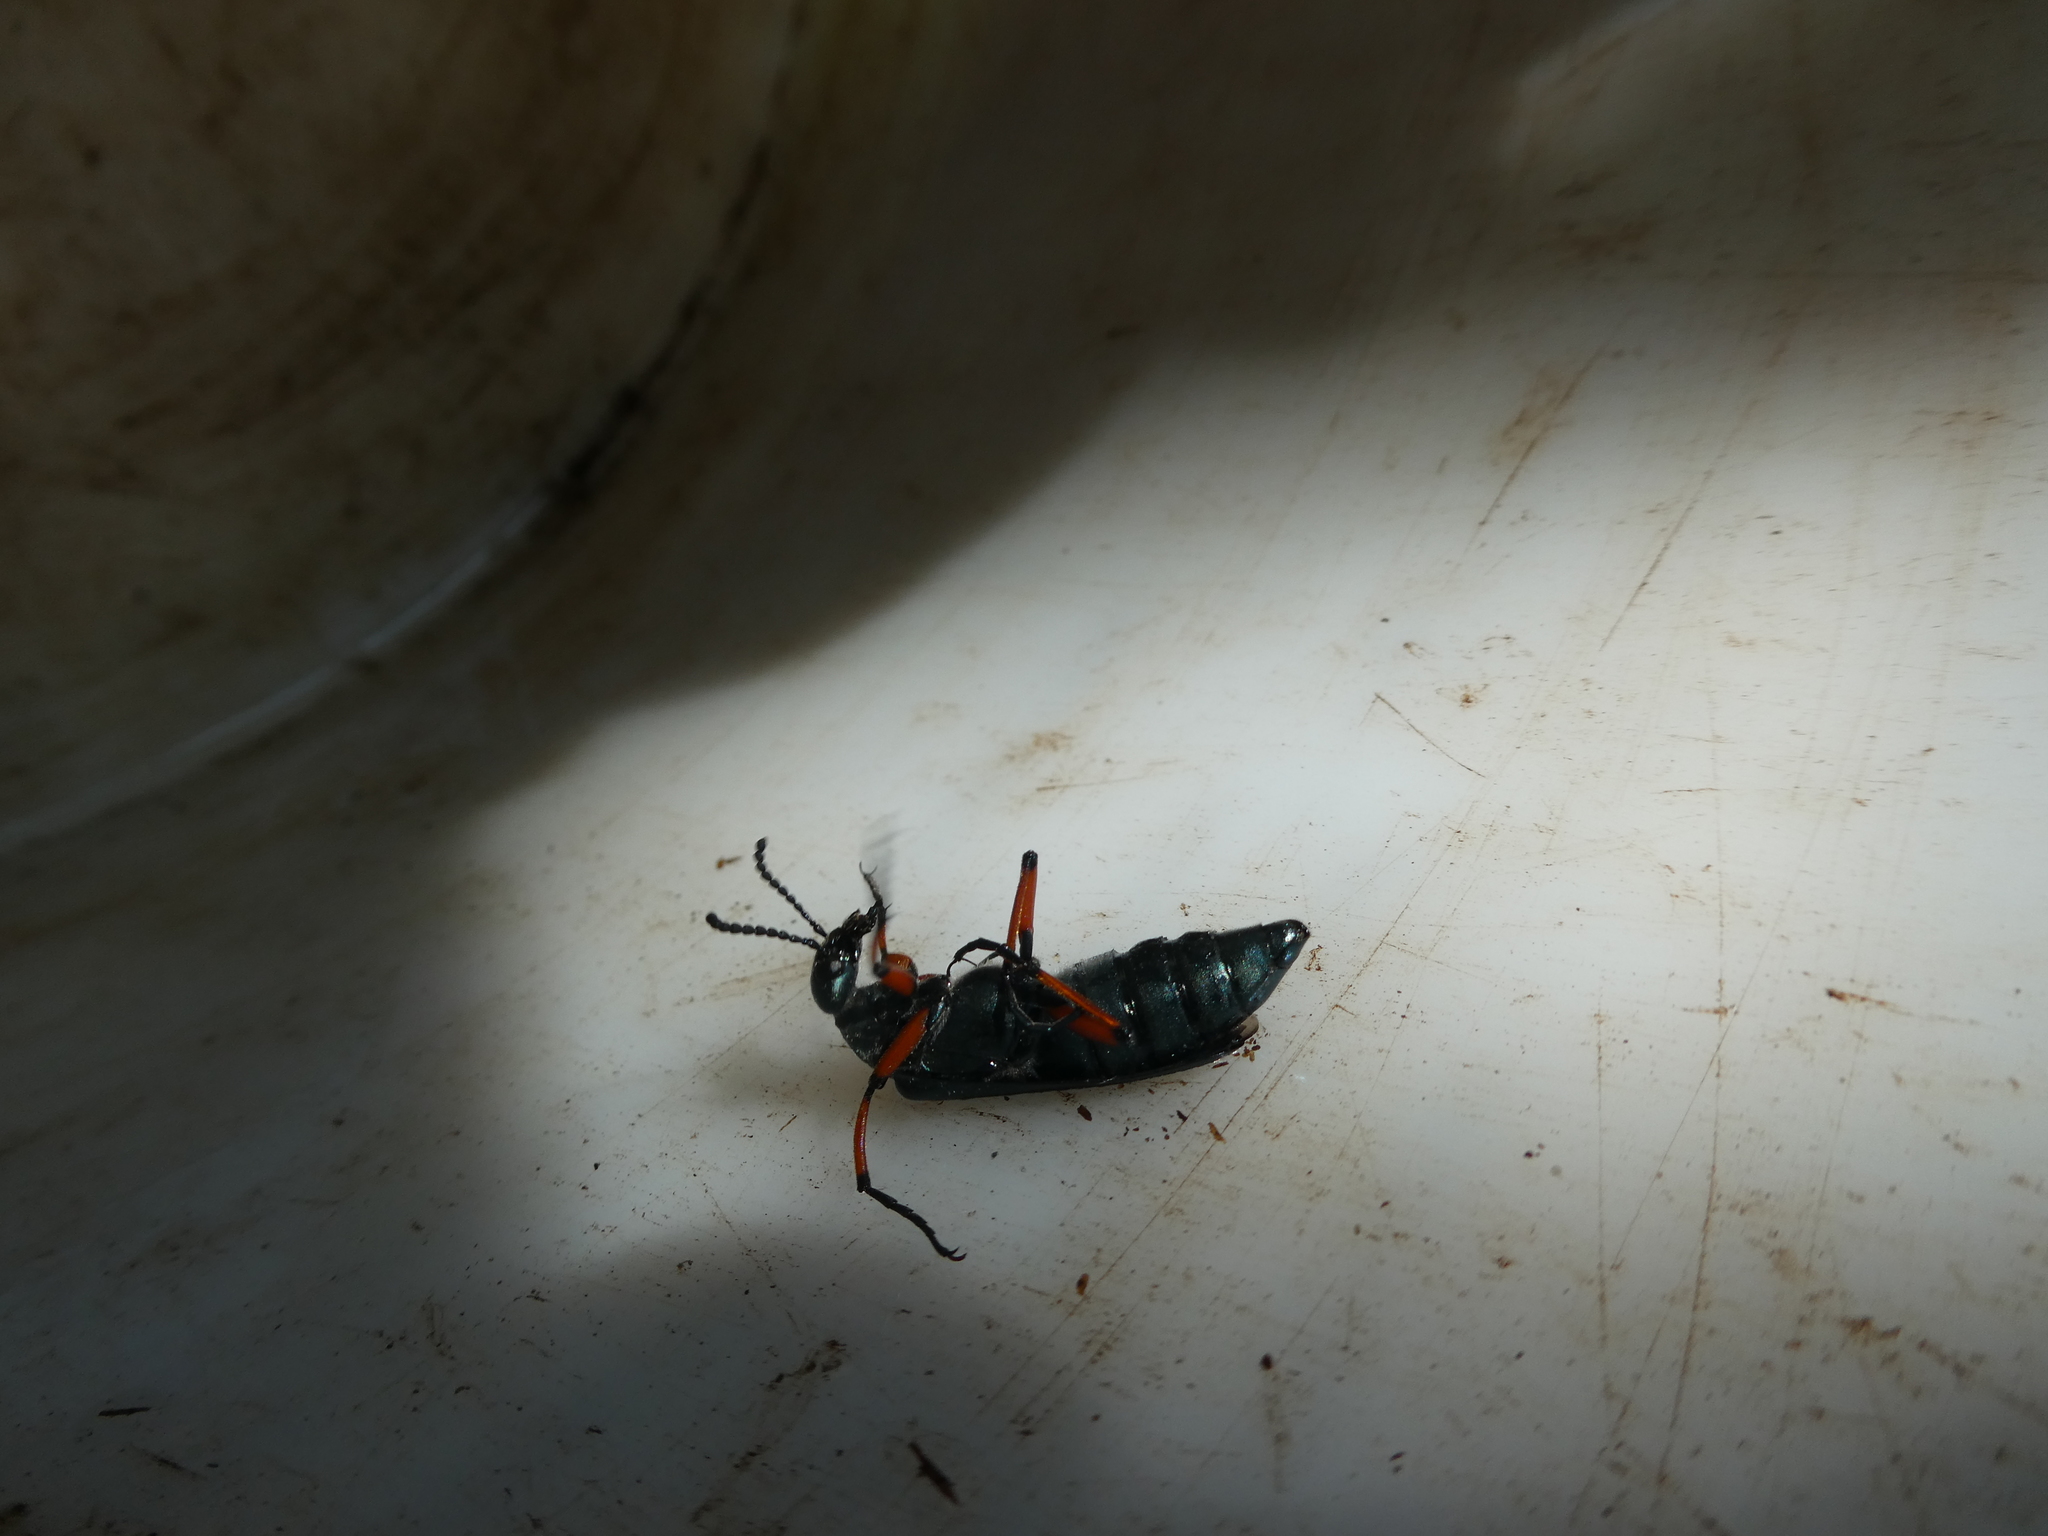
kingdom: Animalia
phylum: Arthropoda
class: Insecta
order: Coleoptera
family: Meloidae
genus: Lytta
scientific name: Lytta sayi
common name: Say's blister beetle
